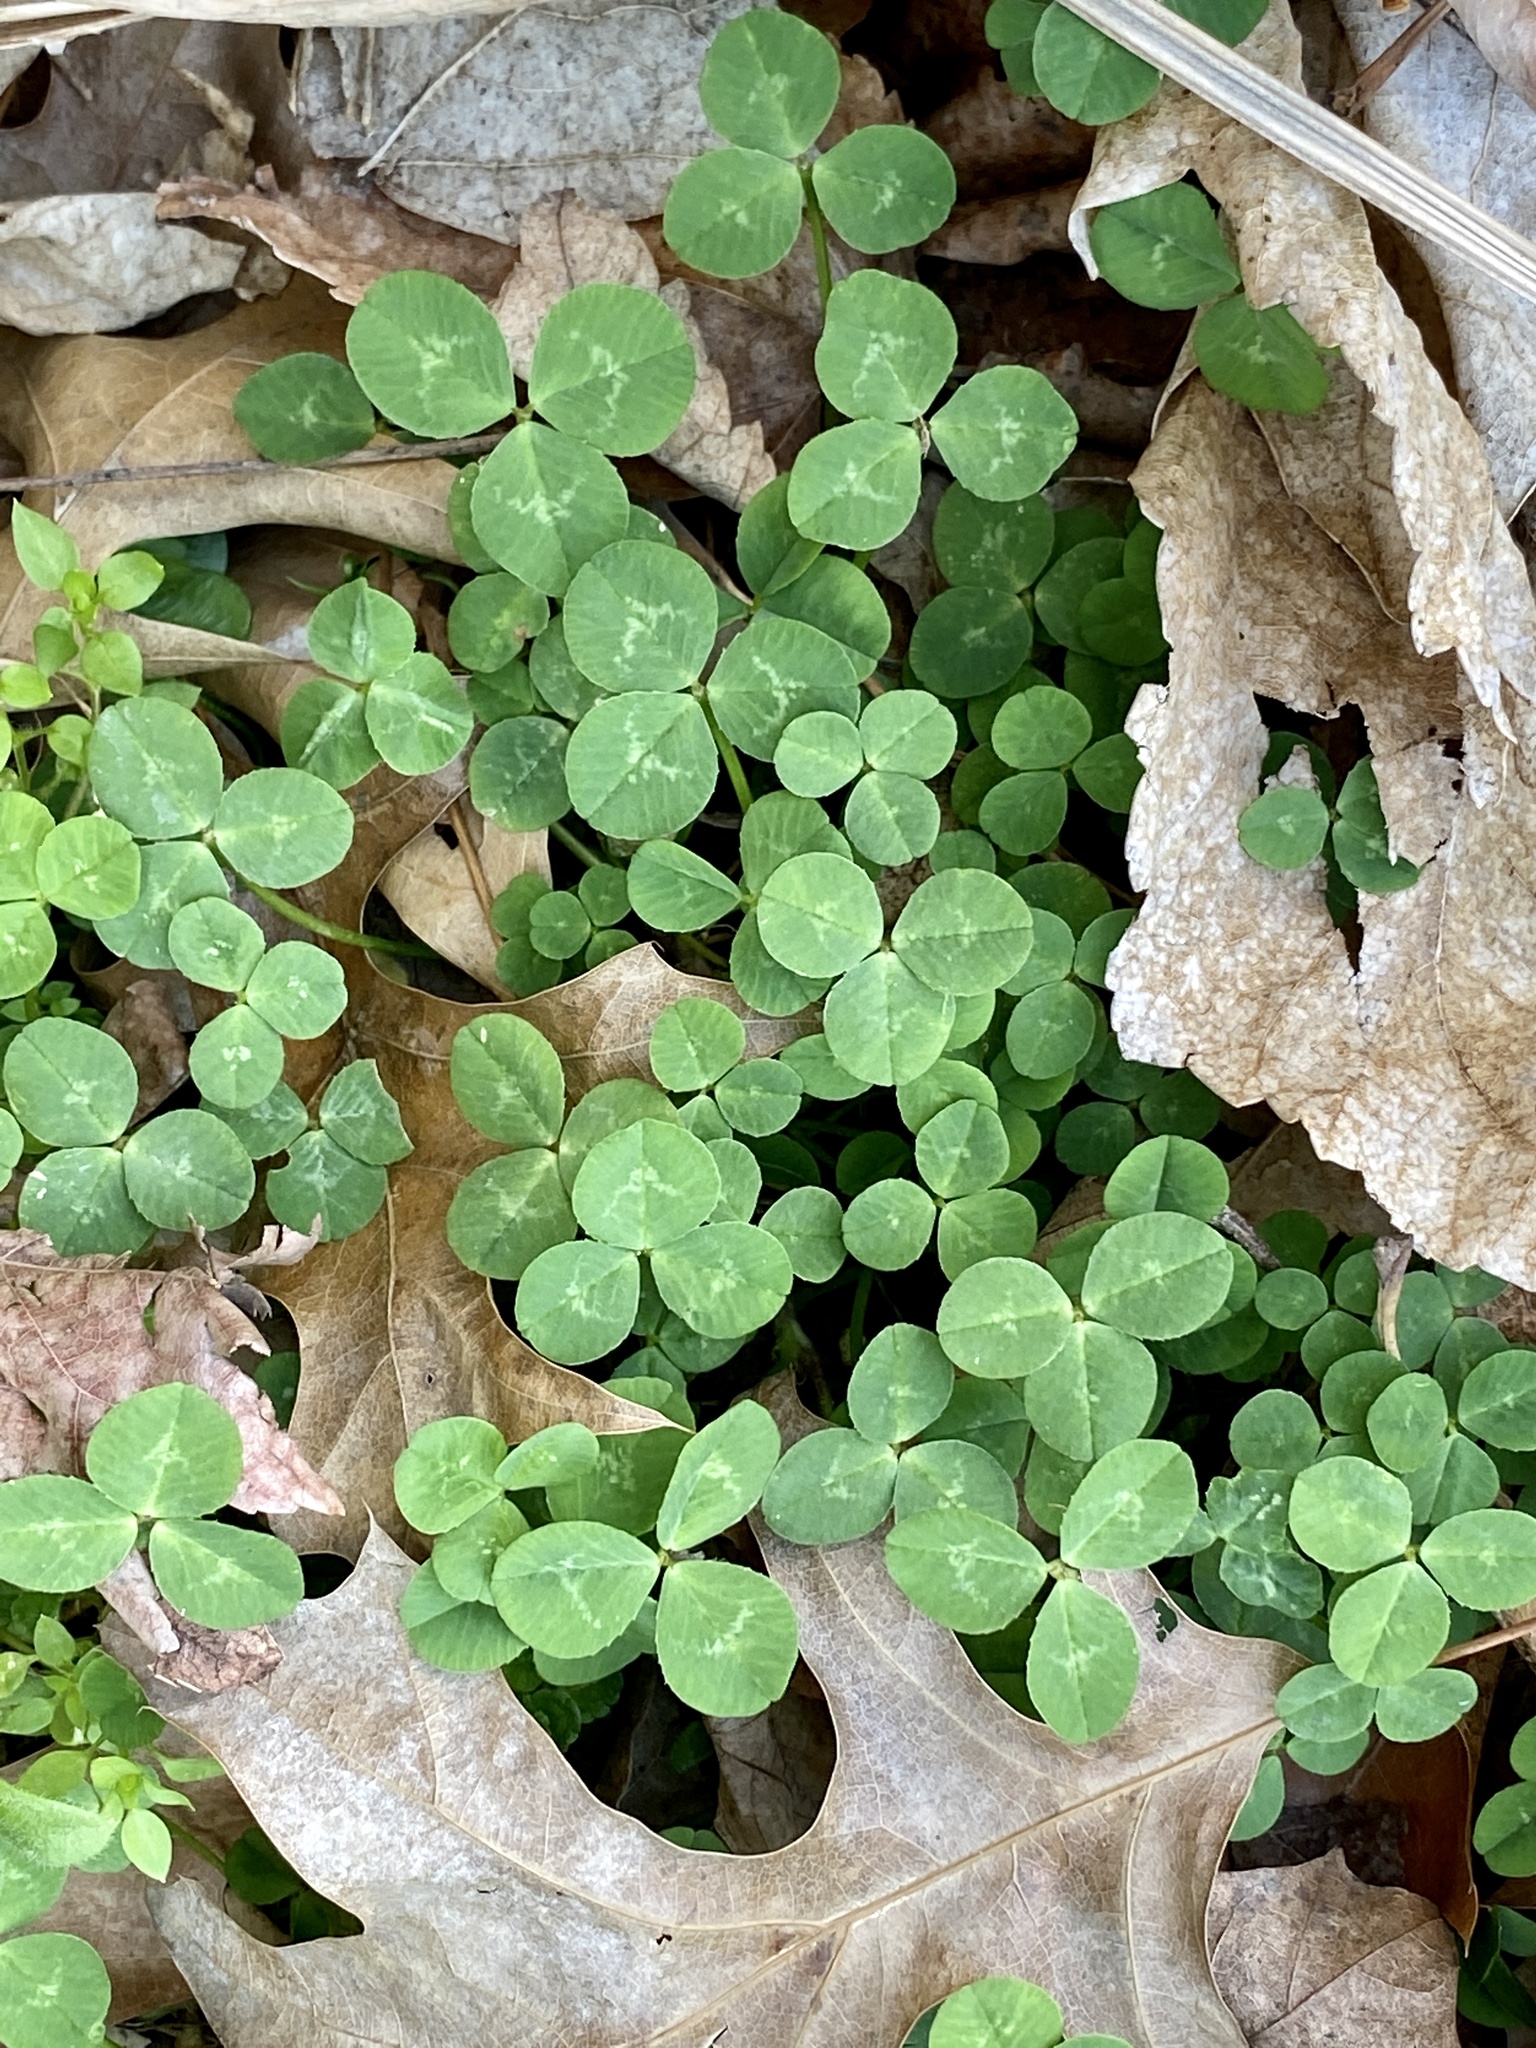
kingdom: Plantae
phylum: Tracheophyta
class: Magnoliopsida
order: Fabales
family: Fabaceae
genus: Trifolium
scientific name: Trifolium repens
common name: White clover
